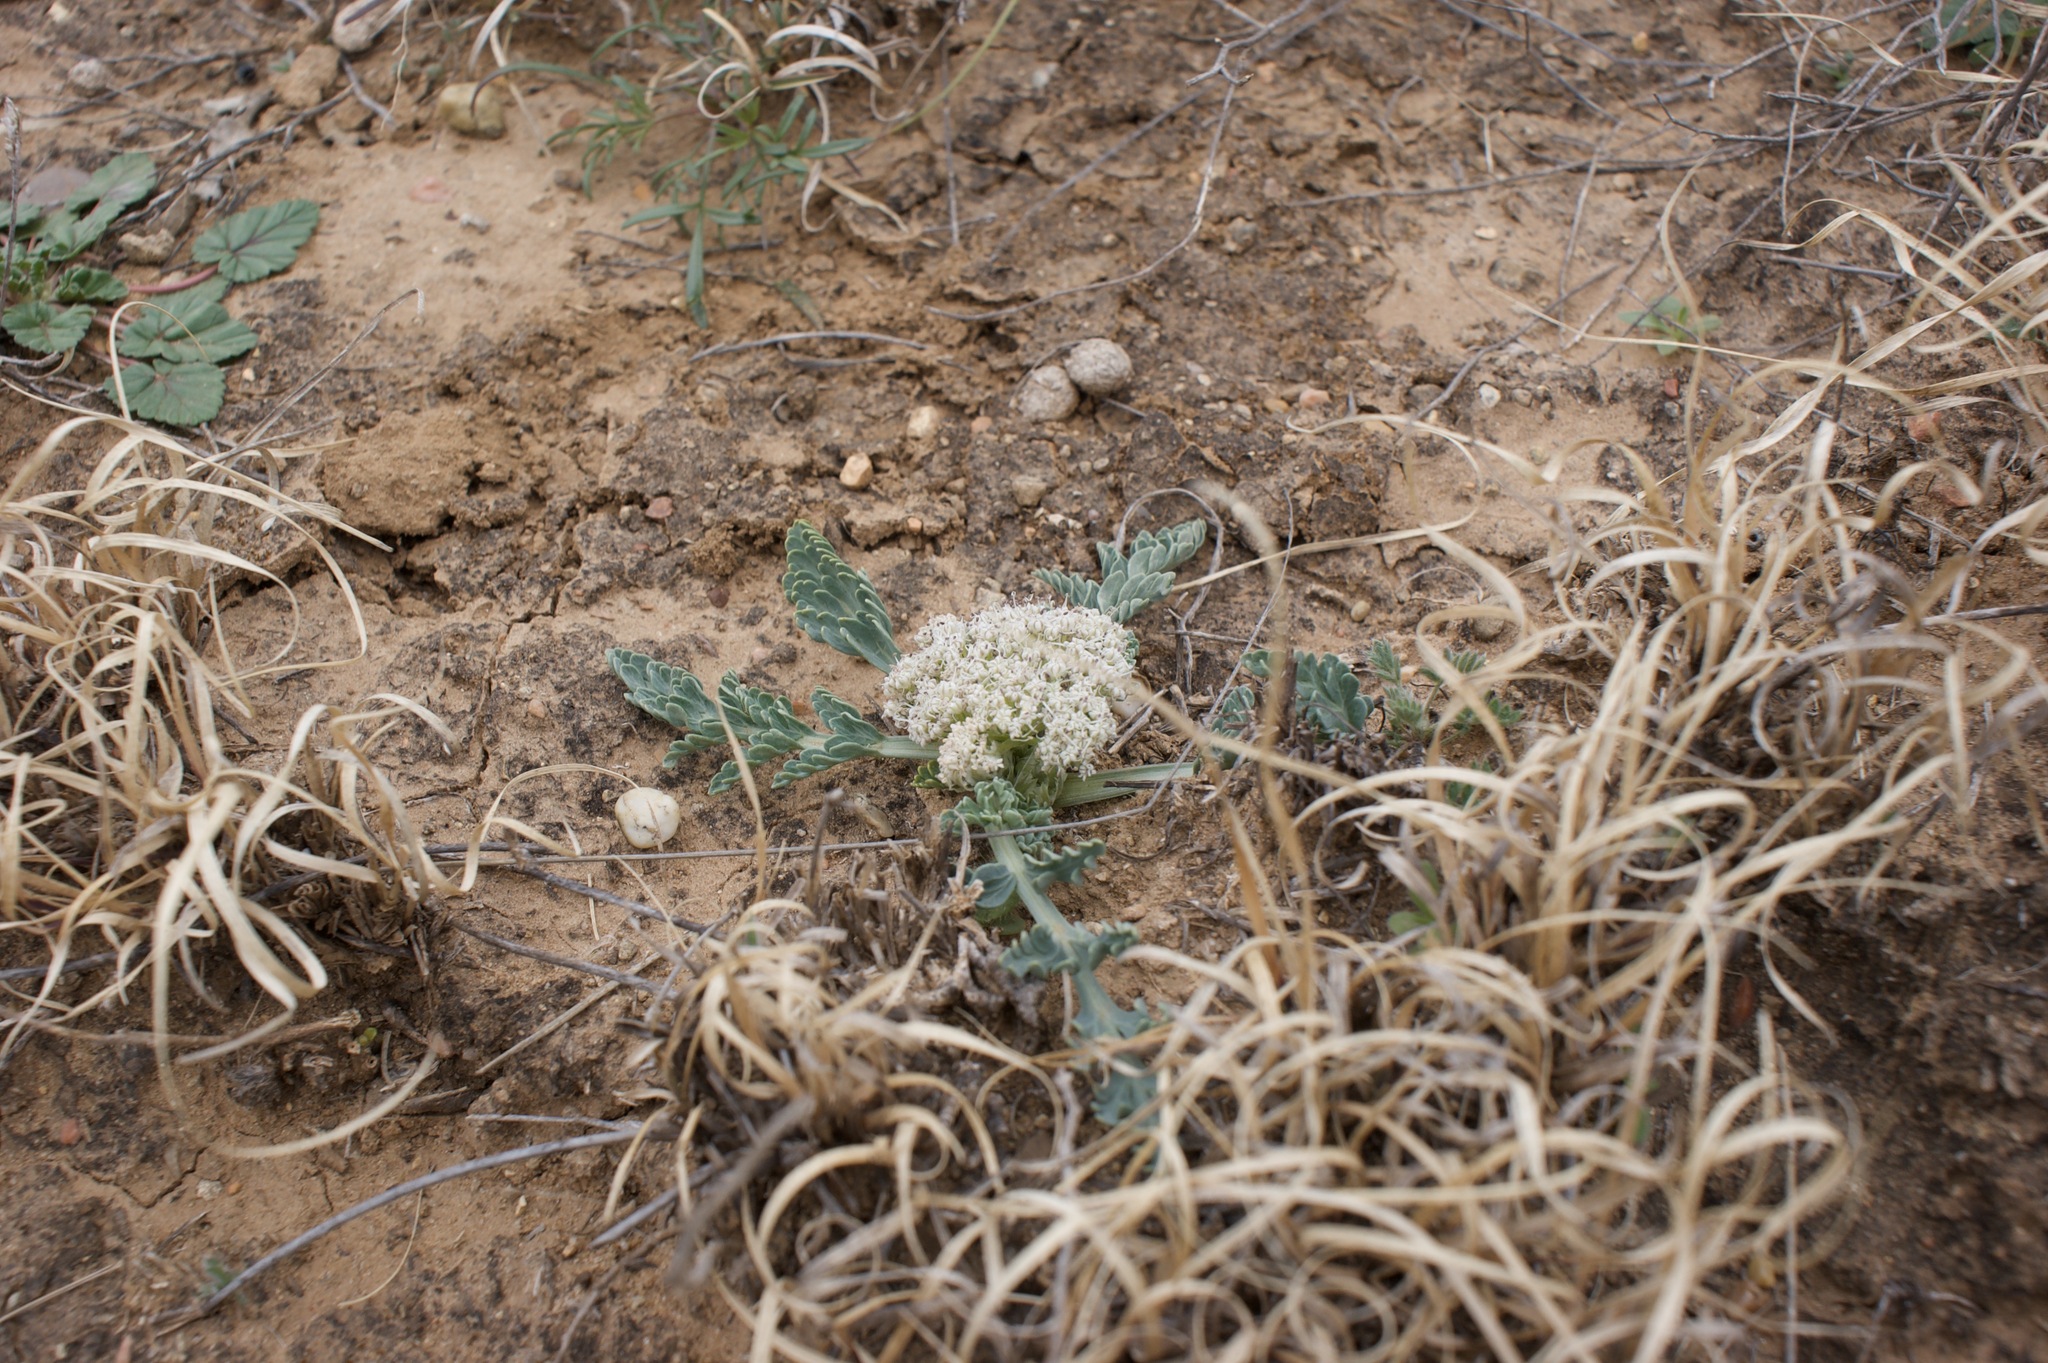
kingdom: Plantae
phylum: Tracheophyta
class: Magnoliopsida
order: Apiales
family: Apiaceae
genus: Vesper
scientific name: Vesper macrorhizus
